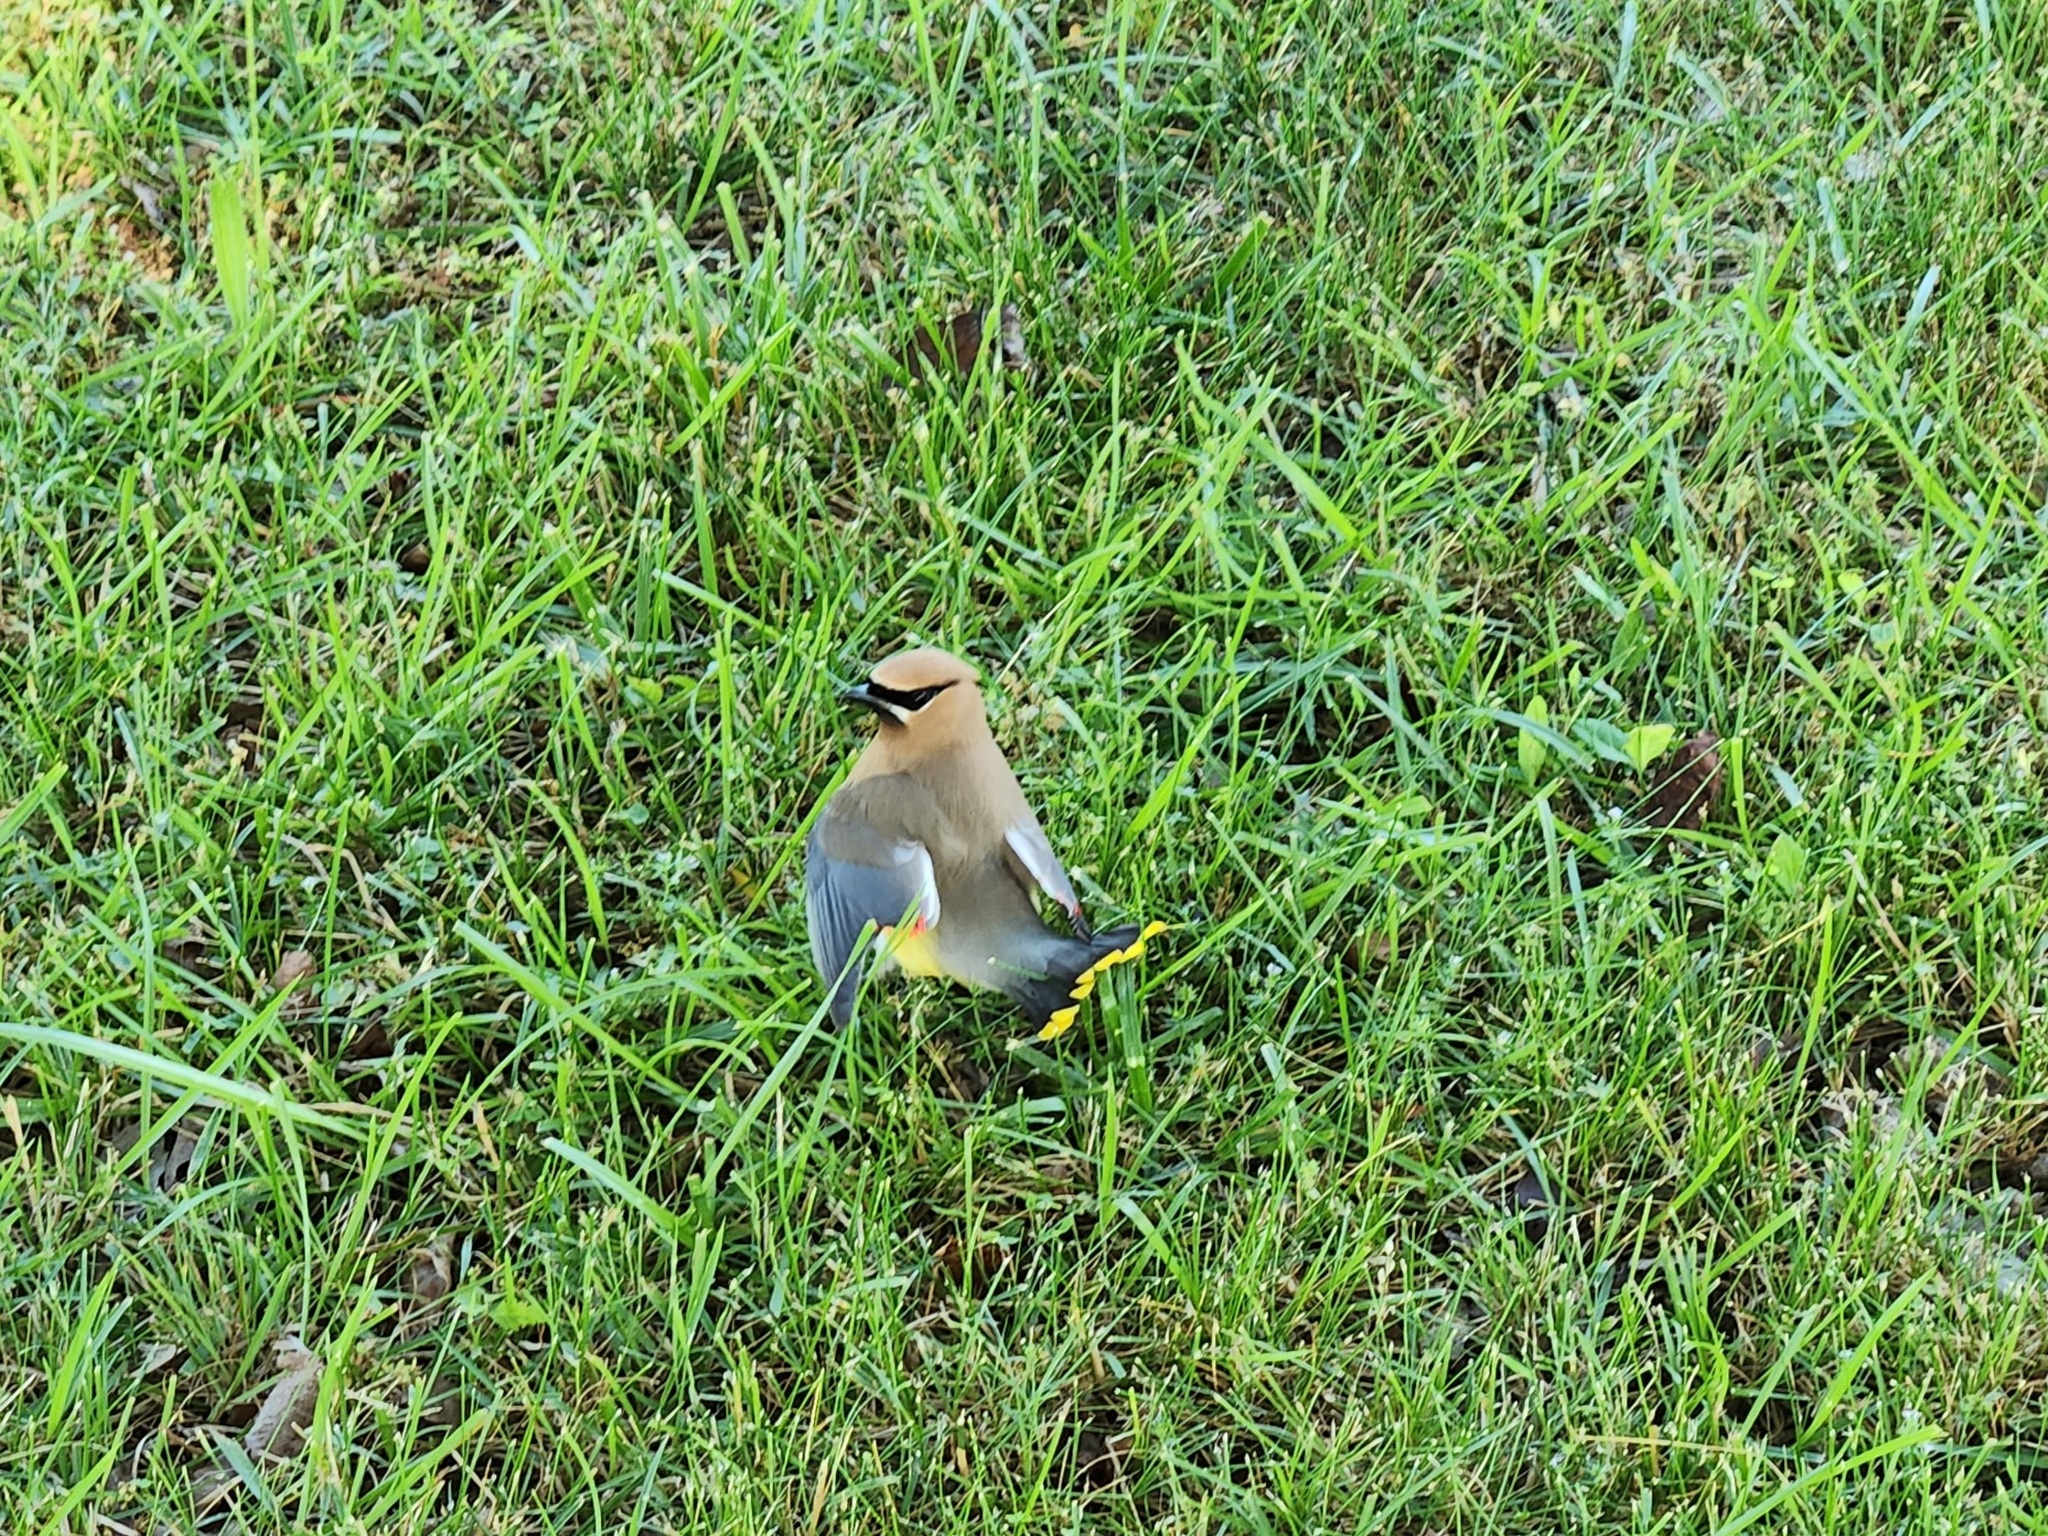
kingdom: Animalia
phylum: Chordata
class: Aves
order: Passeriformes
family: Bombycillidae
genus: Bombycilla
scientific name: Bombycilla cedrorum
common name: Cedar waxwing
